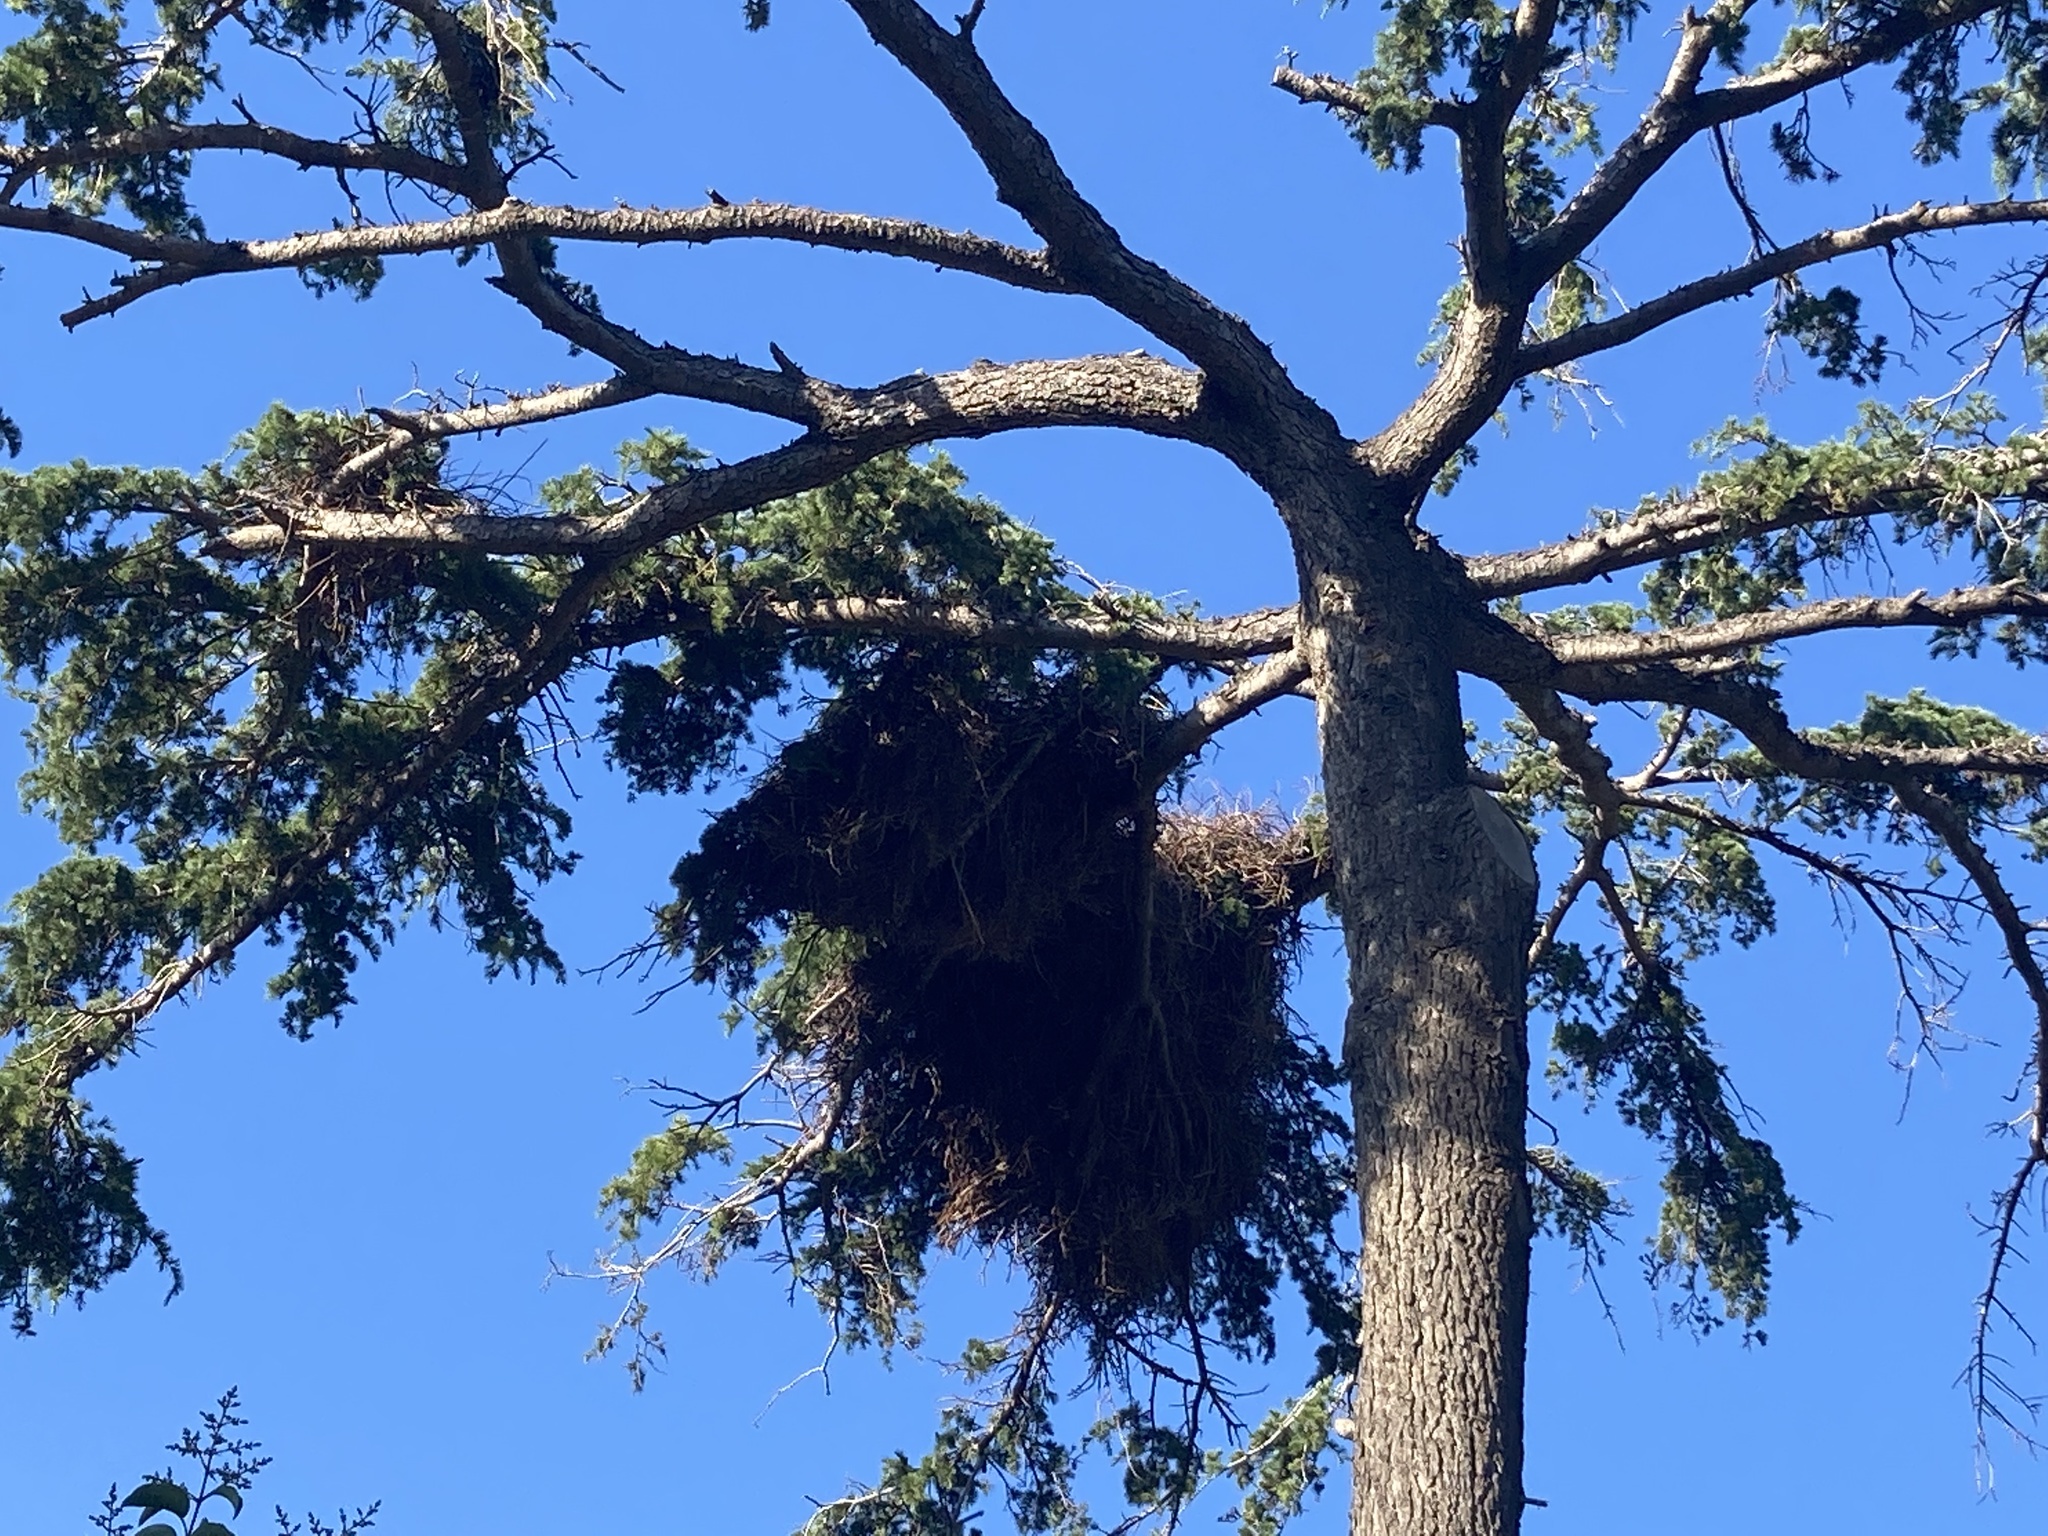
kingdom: Animalia
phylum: Chordata
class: Aves
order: Psittaciformes
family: Psittacidae
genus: Myiopsitta
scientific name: Myiopsitta monachus
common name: Monk parakeet
